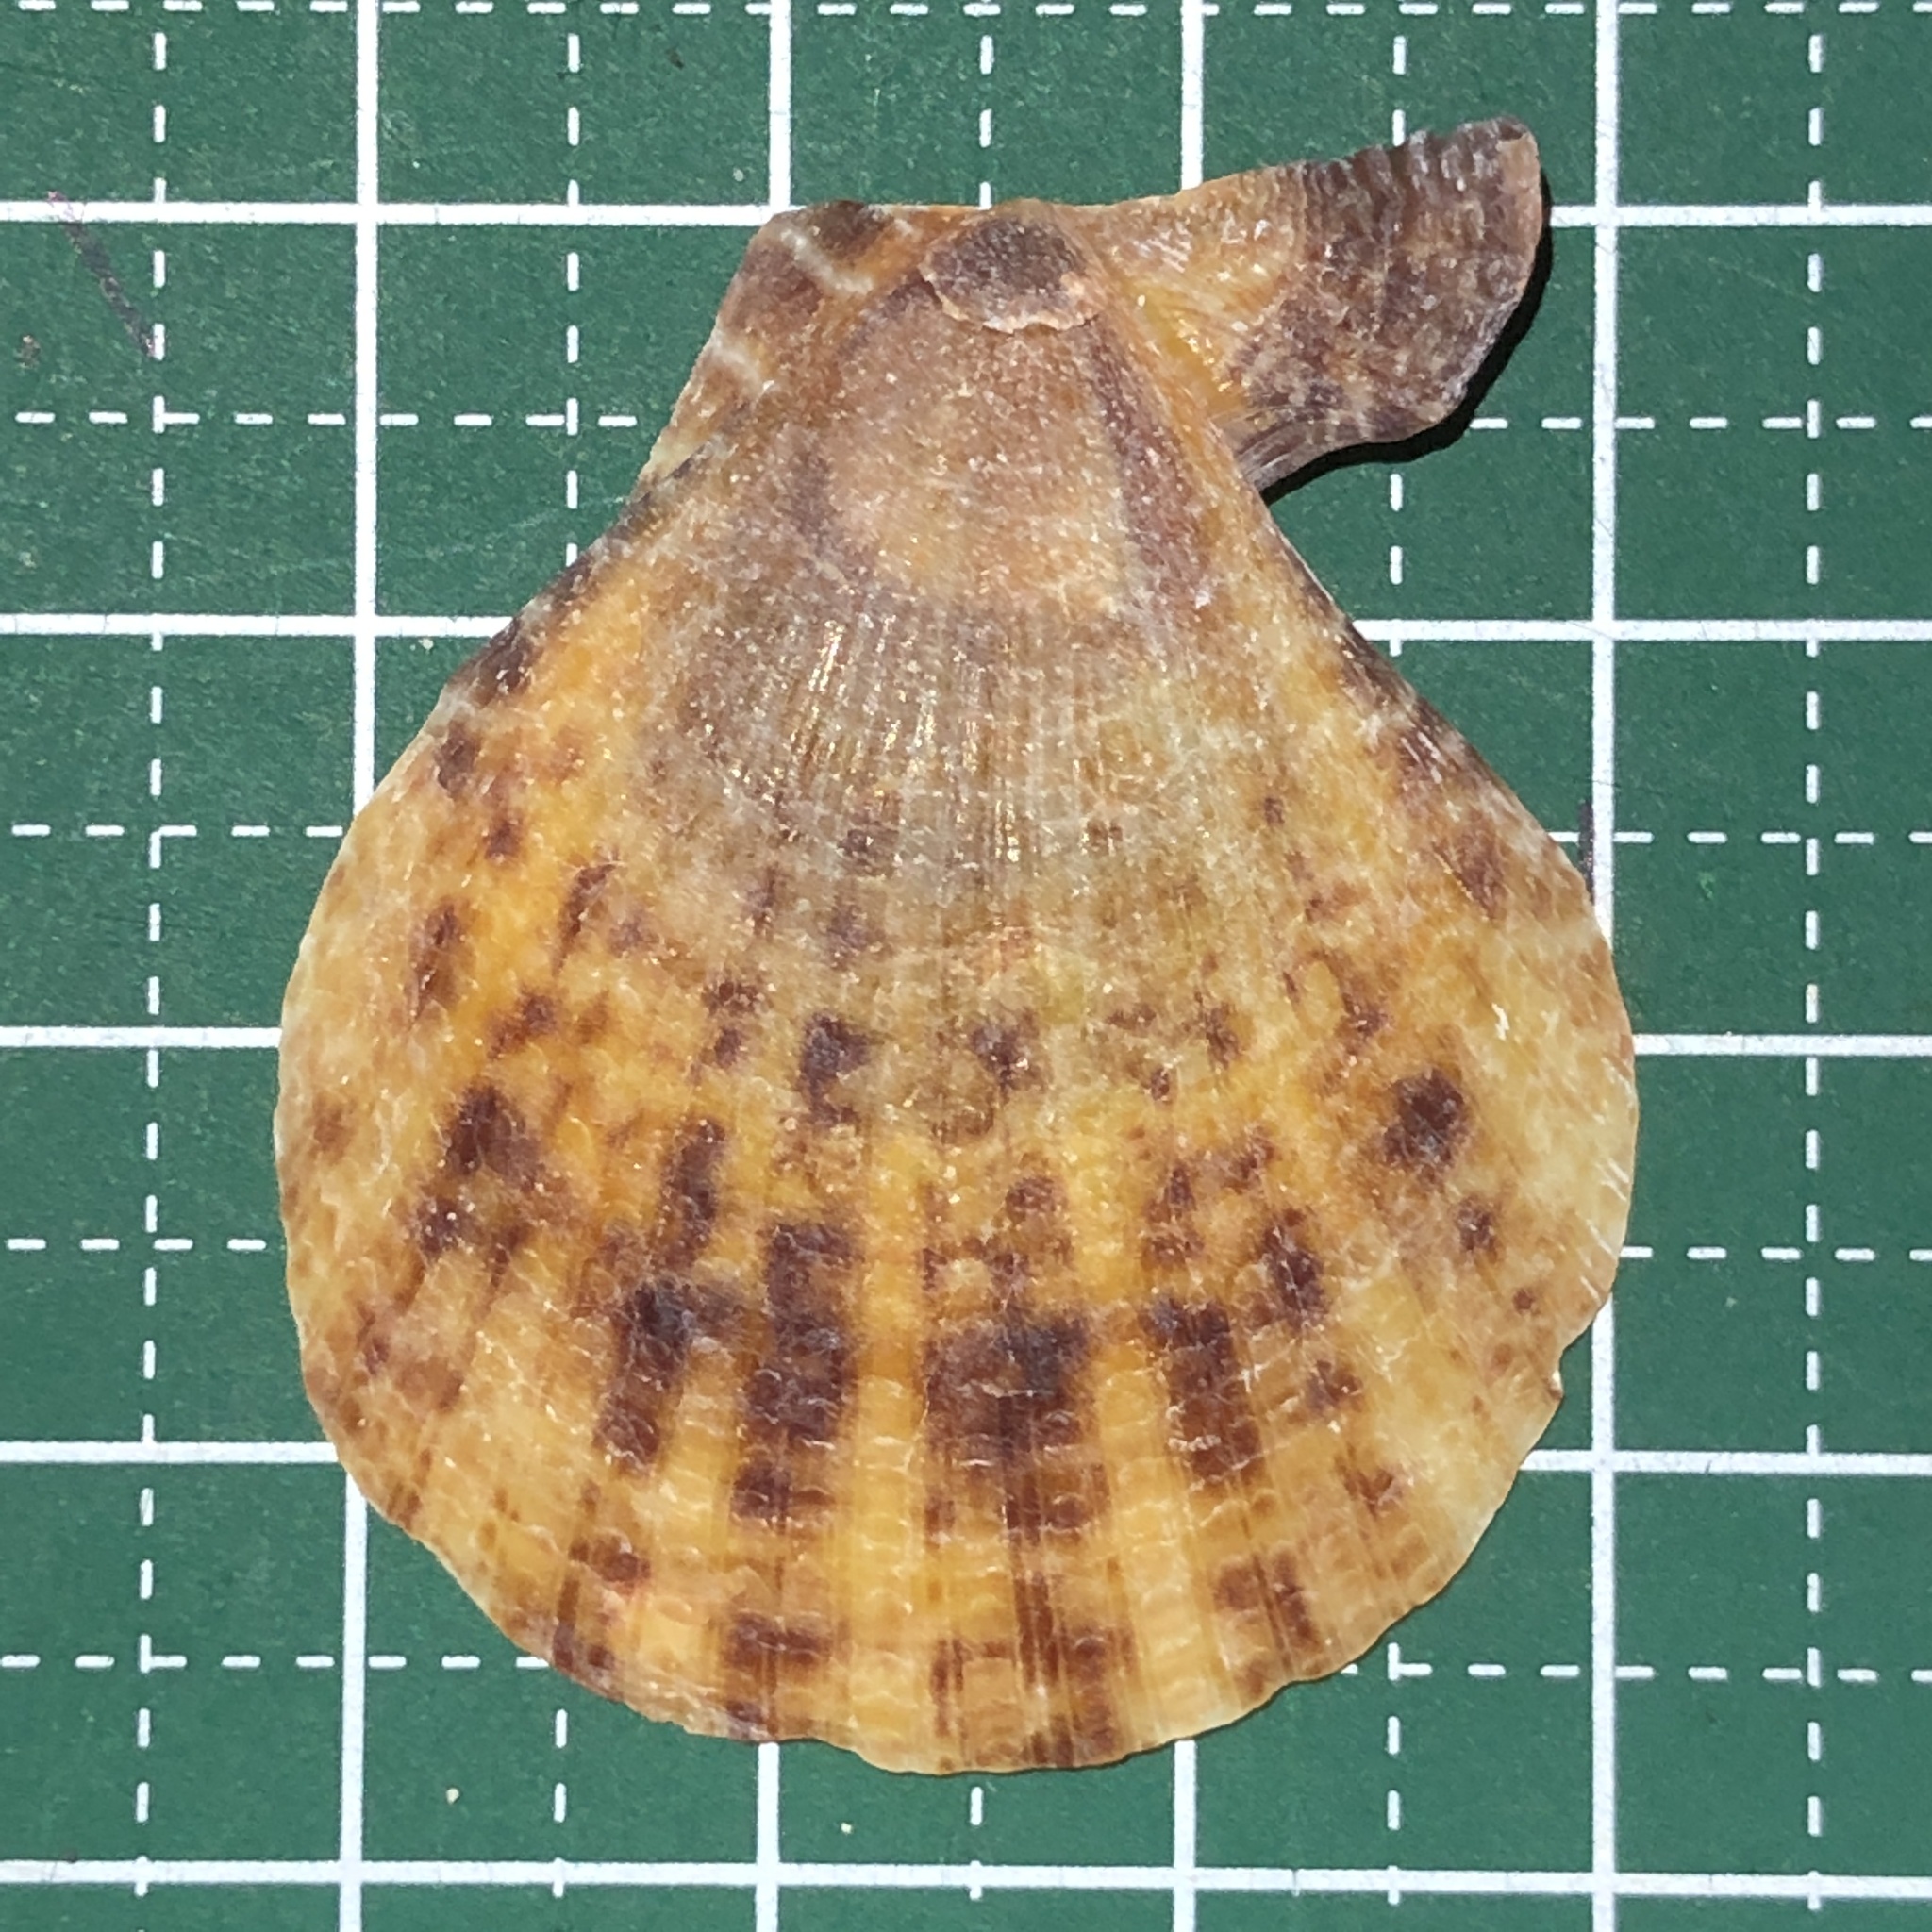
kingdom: Animalia
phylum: Mollusca
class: Bivalvia
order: Pectinida
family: Pectinidae
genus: Laevichlamys
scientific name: Laevichlamys squamosa
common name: Squamose scallop
